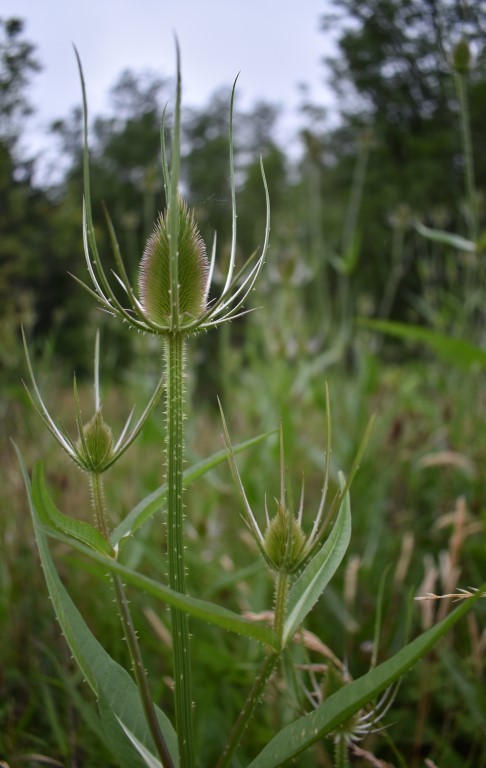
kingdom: Plantae
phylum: Tracheophyta
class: Magnoliopsida
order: Dipsacales
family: Caprifoliaceae
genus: Dipsacus
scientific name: Dipsacus fullonum
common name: Teasel
